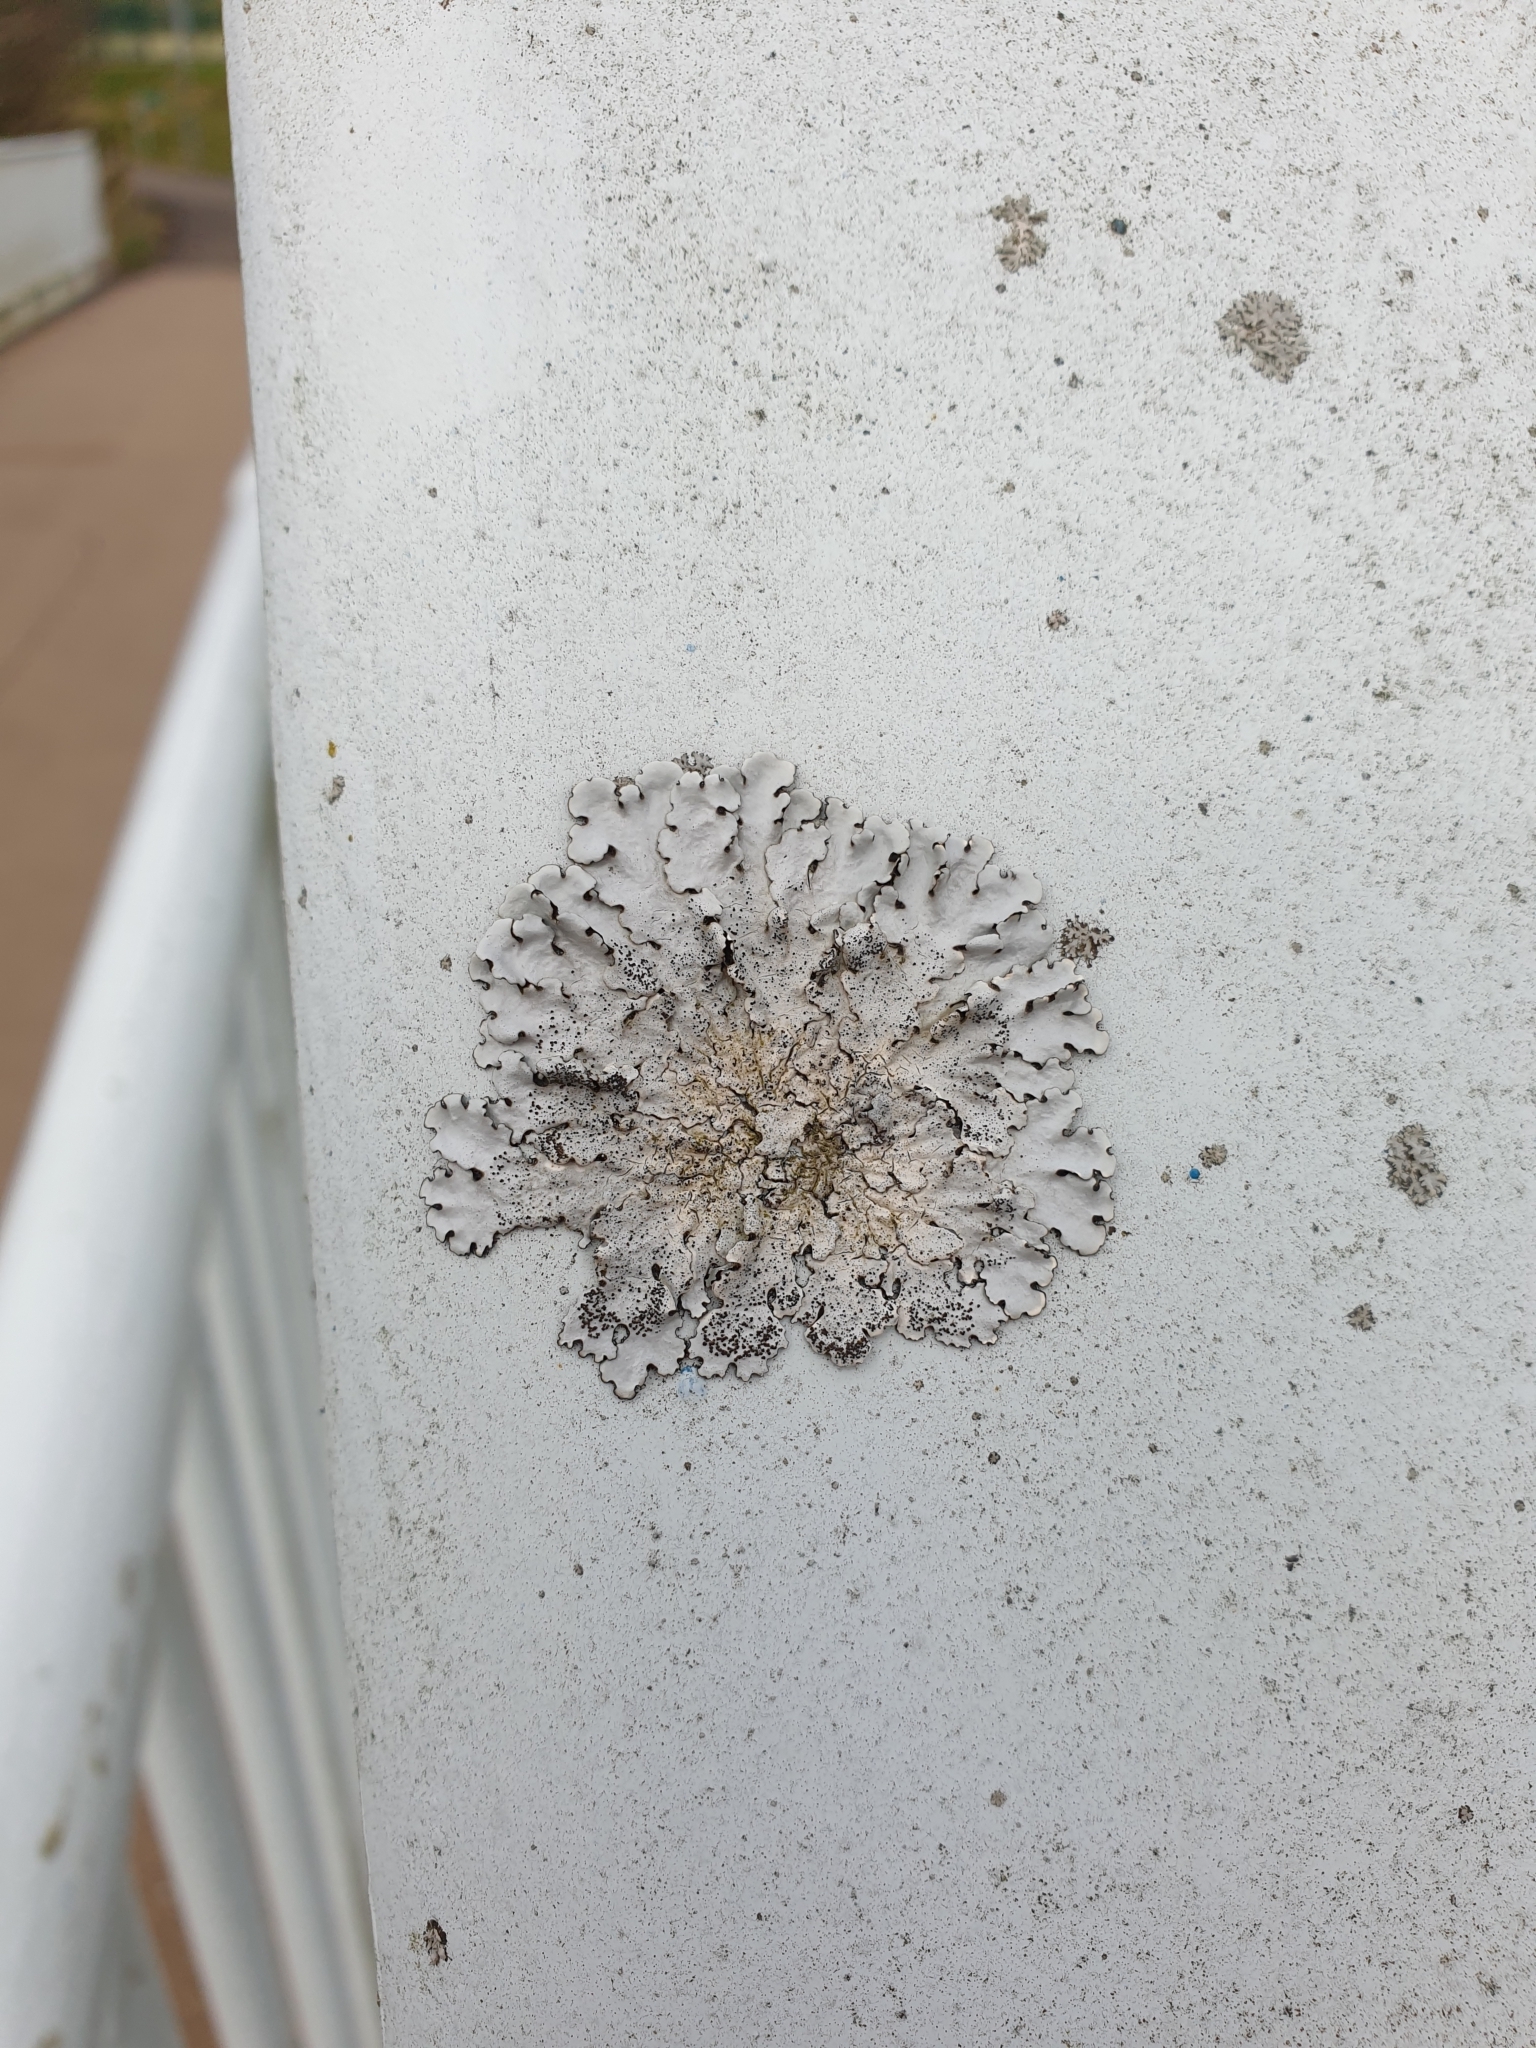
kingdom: Fungi
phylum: Ascomycota
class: Lecanoromycetes
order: Lecanorales
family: Parmeliaceae
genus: Parmelina
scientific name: Parmelina pastillifera
